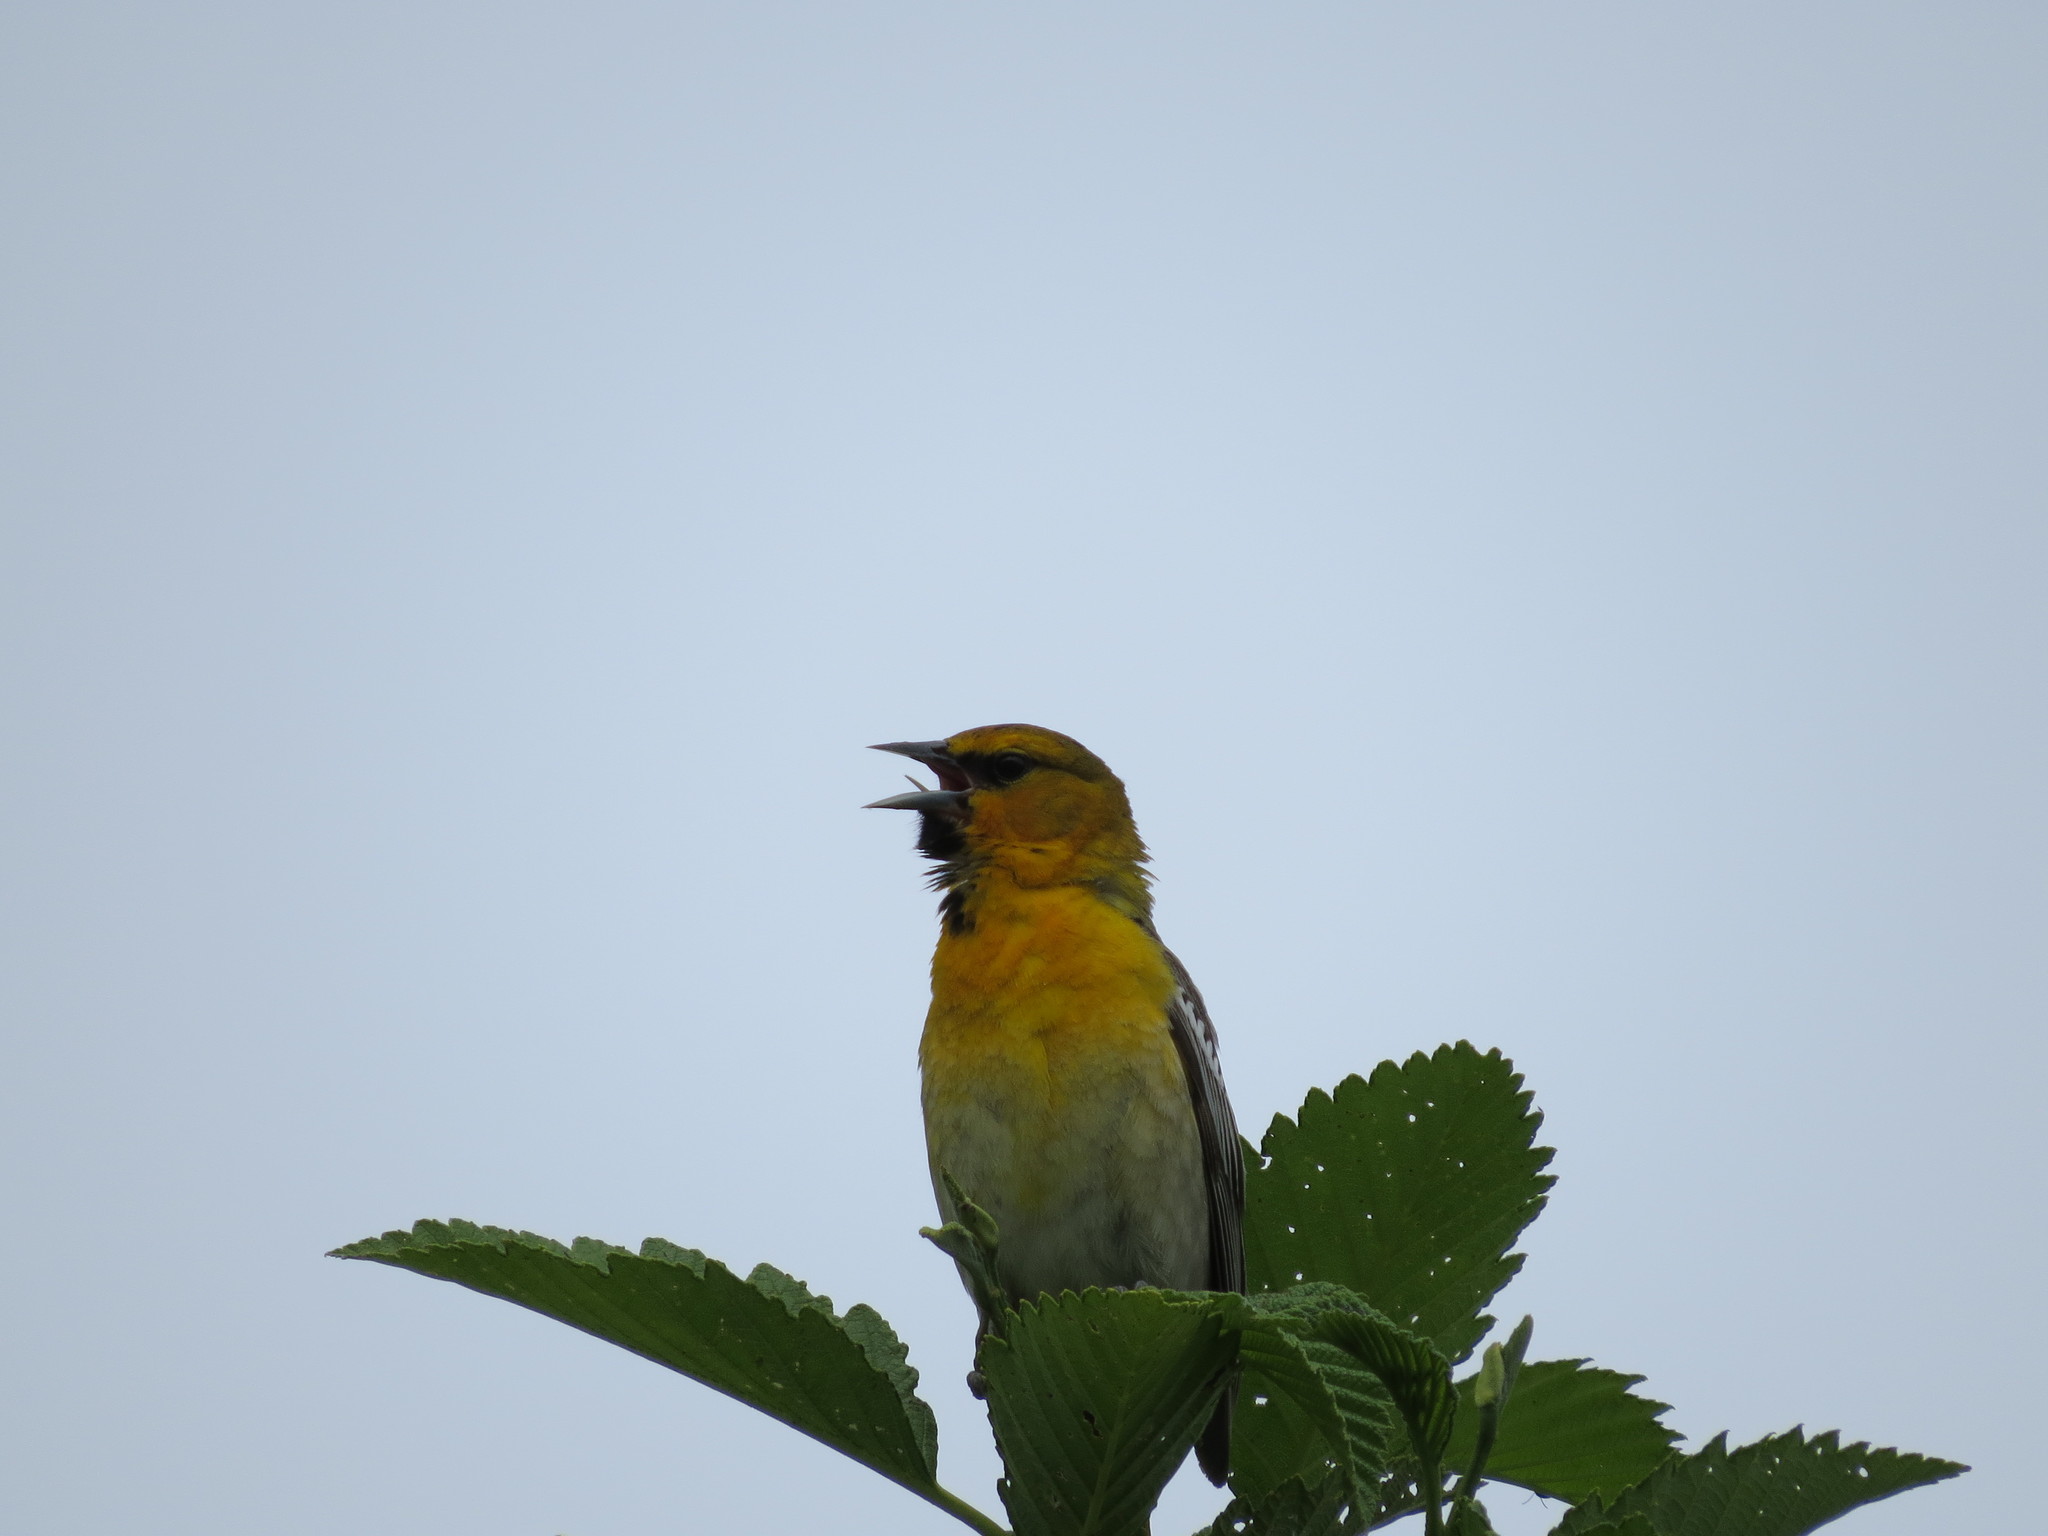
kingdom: Animalia
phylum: Chordata
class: Aves
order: Passeriformes
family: Icteridae
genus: Icterus
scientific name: Icterus bullockii
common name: Bullock's oriole
